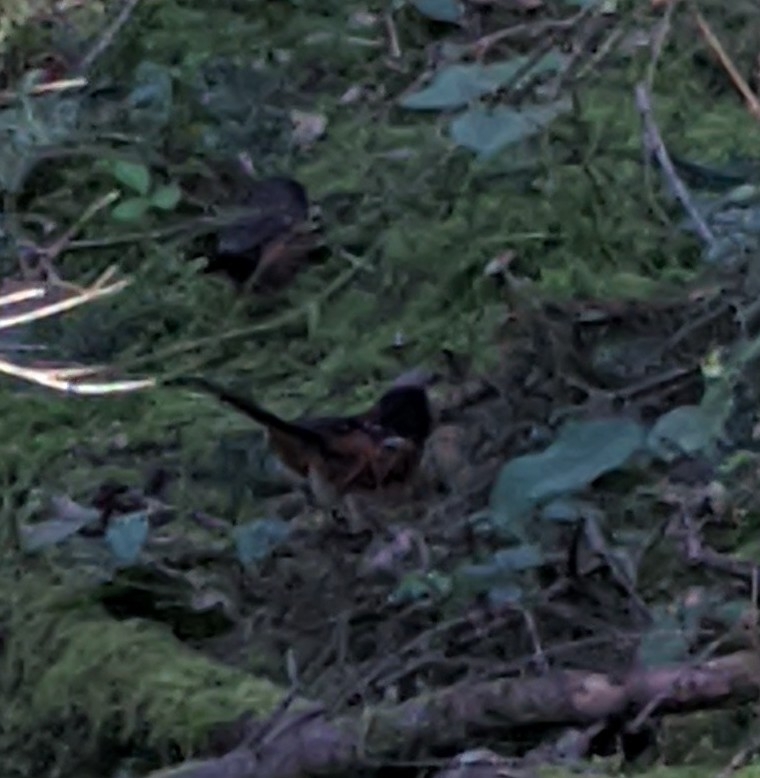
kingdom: Animalia
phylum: Chordata
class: Aves
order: Passeriformes
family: Passerellidae
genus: Pipilo
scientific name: Pipilo maculatus
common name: Spotted towhee
